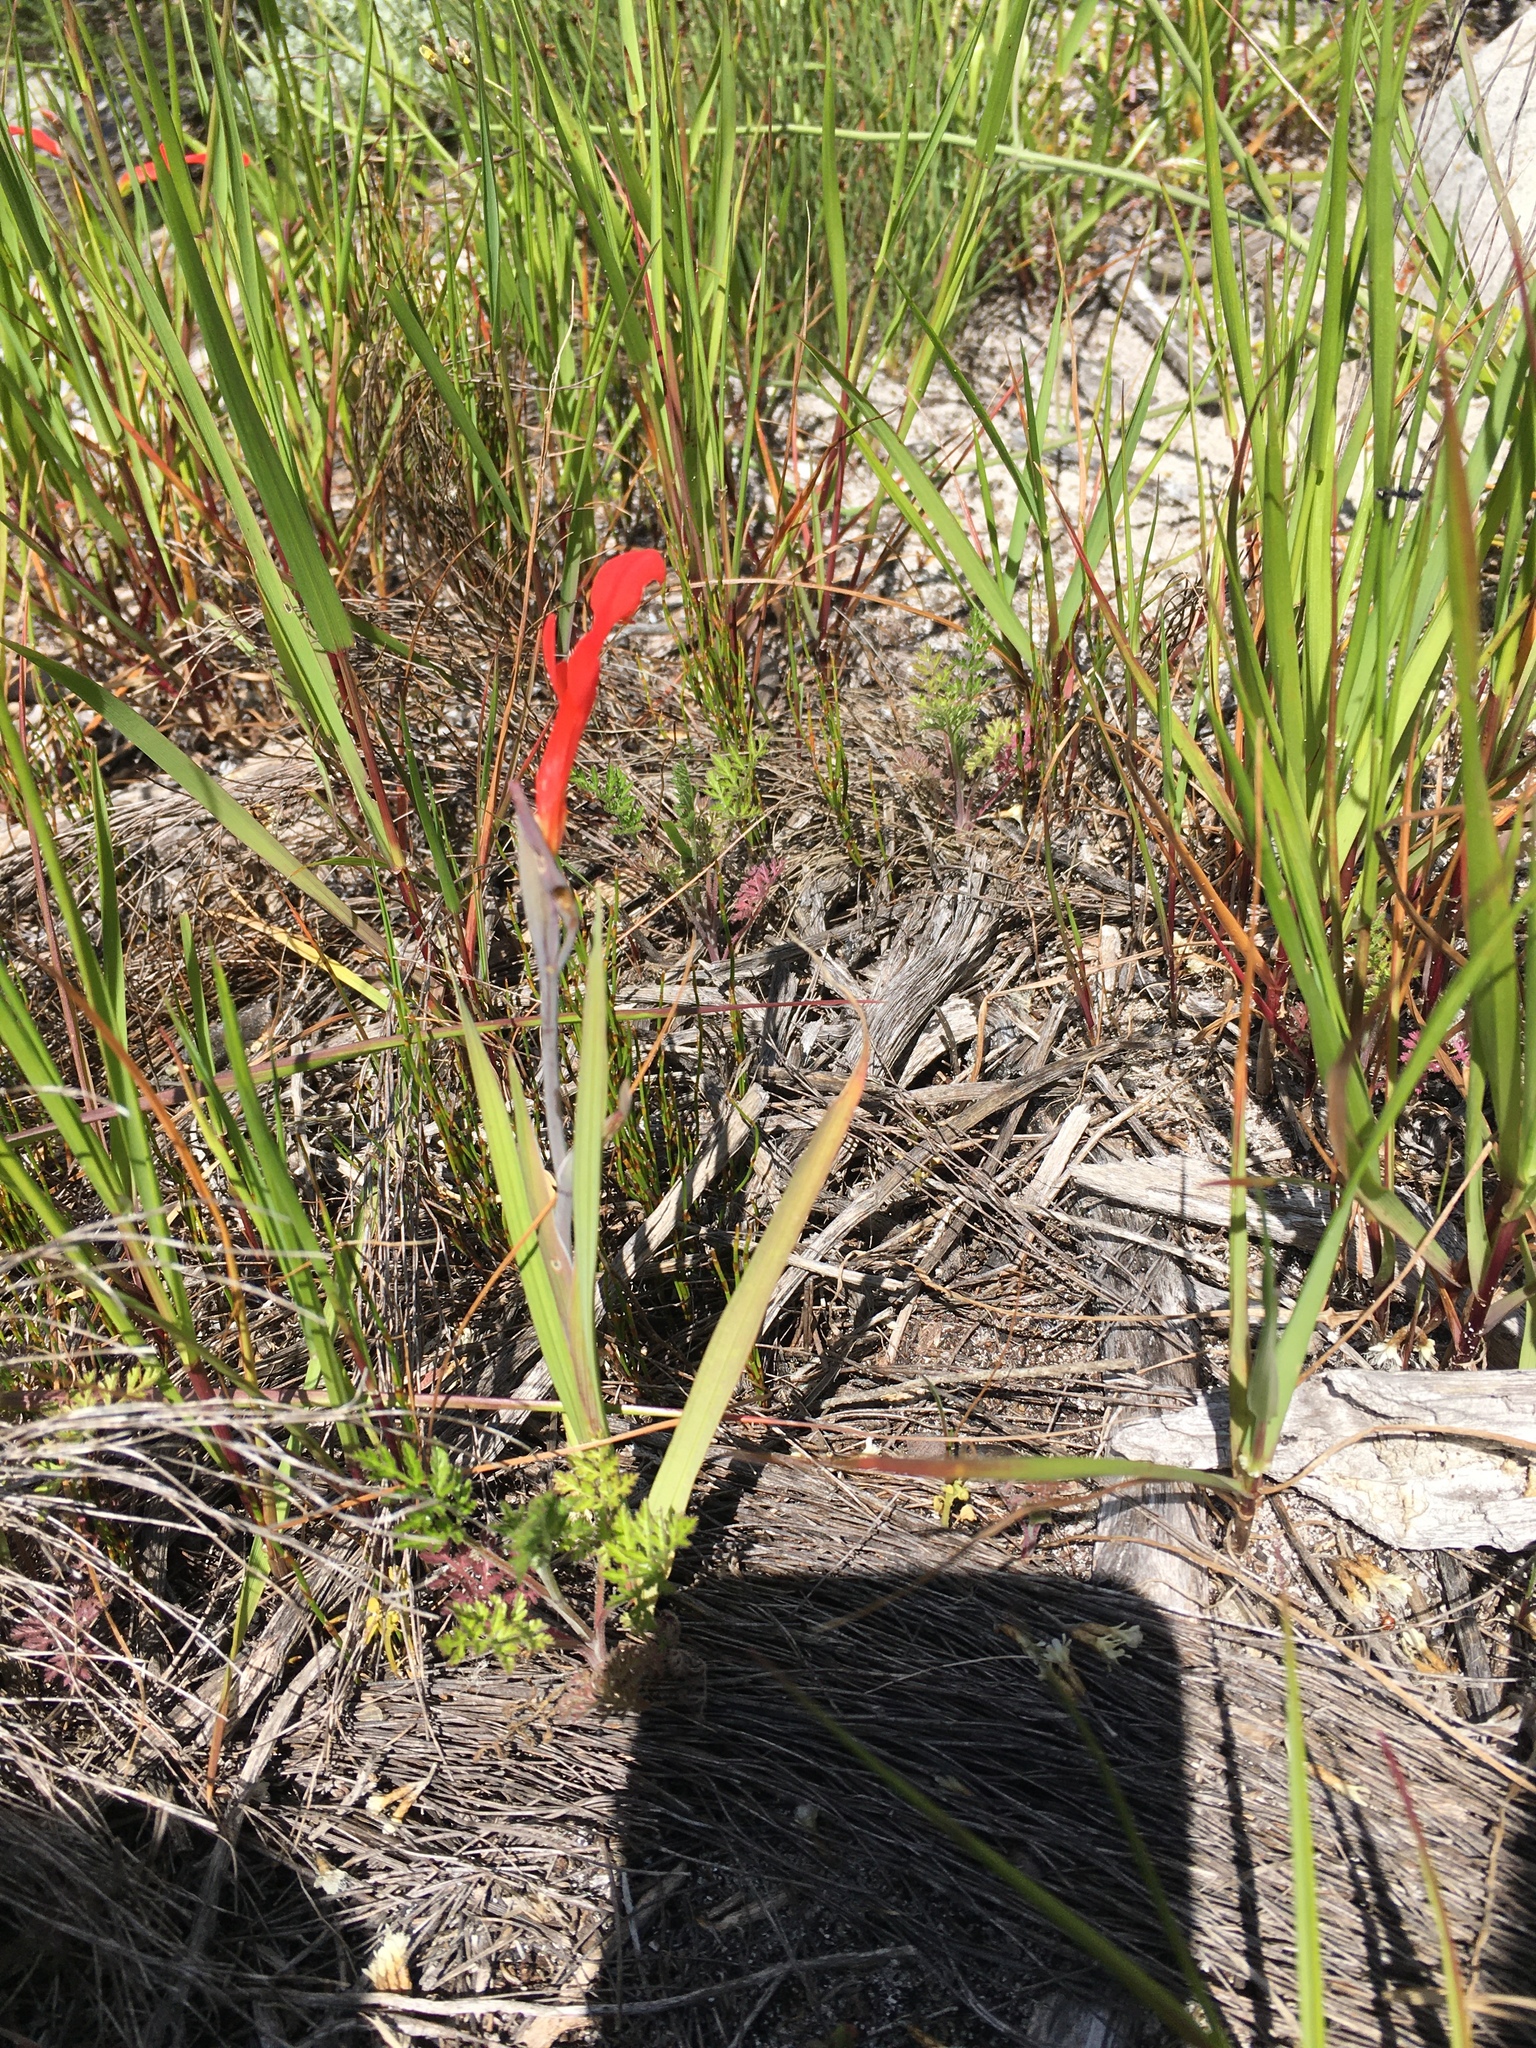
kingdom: Plantae
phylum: Tracheophyta
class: Liliopsida
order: Asparagales
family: Iridaceae
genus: Gladiolus
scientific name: Gladiolus cunonius
